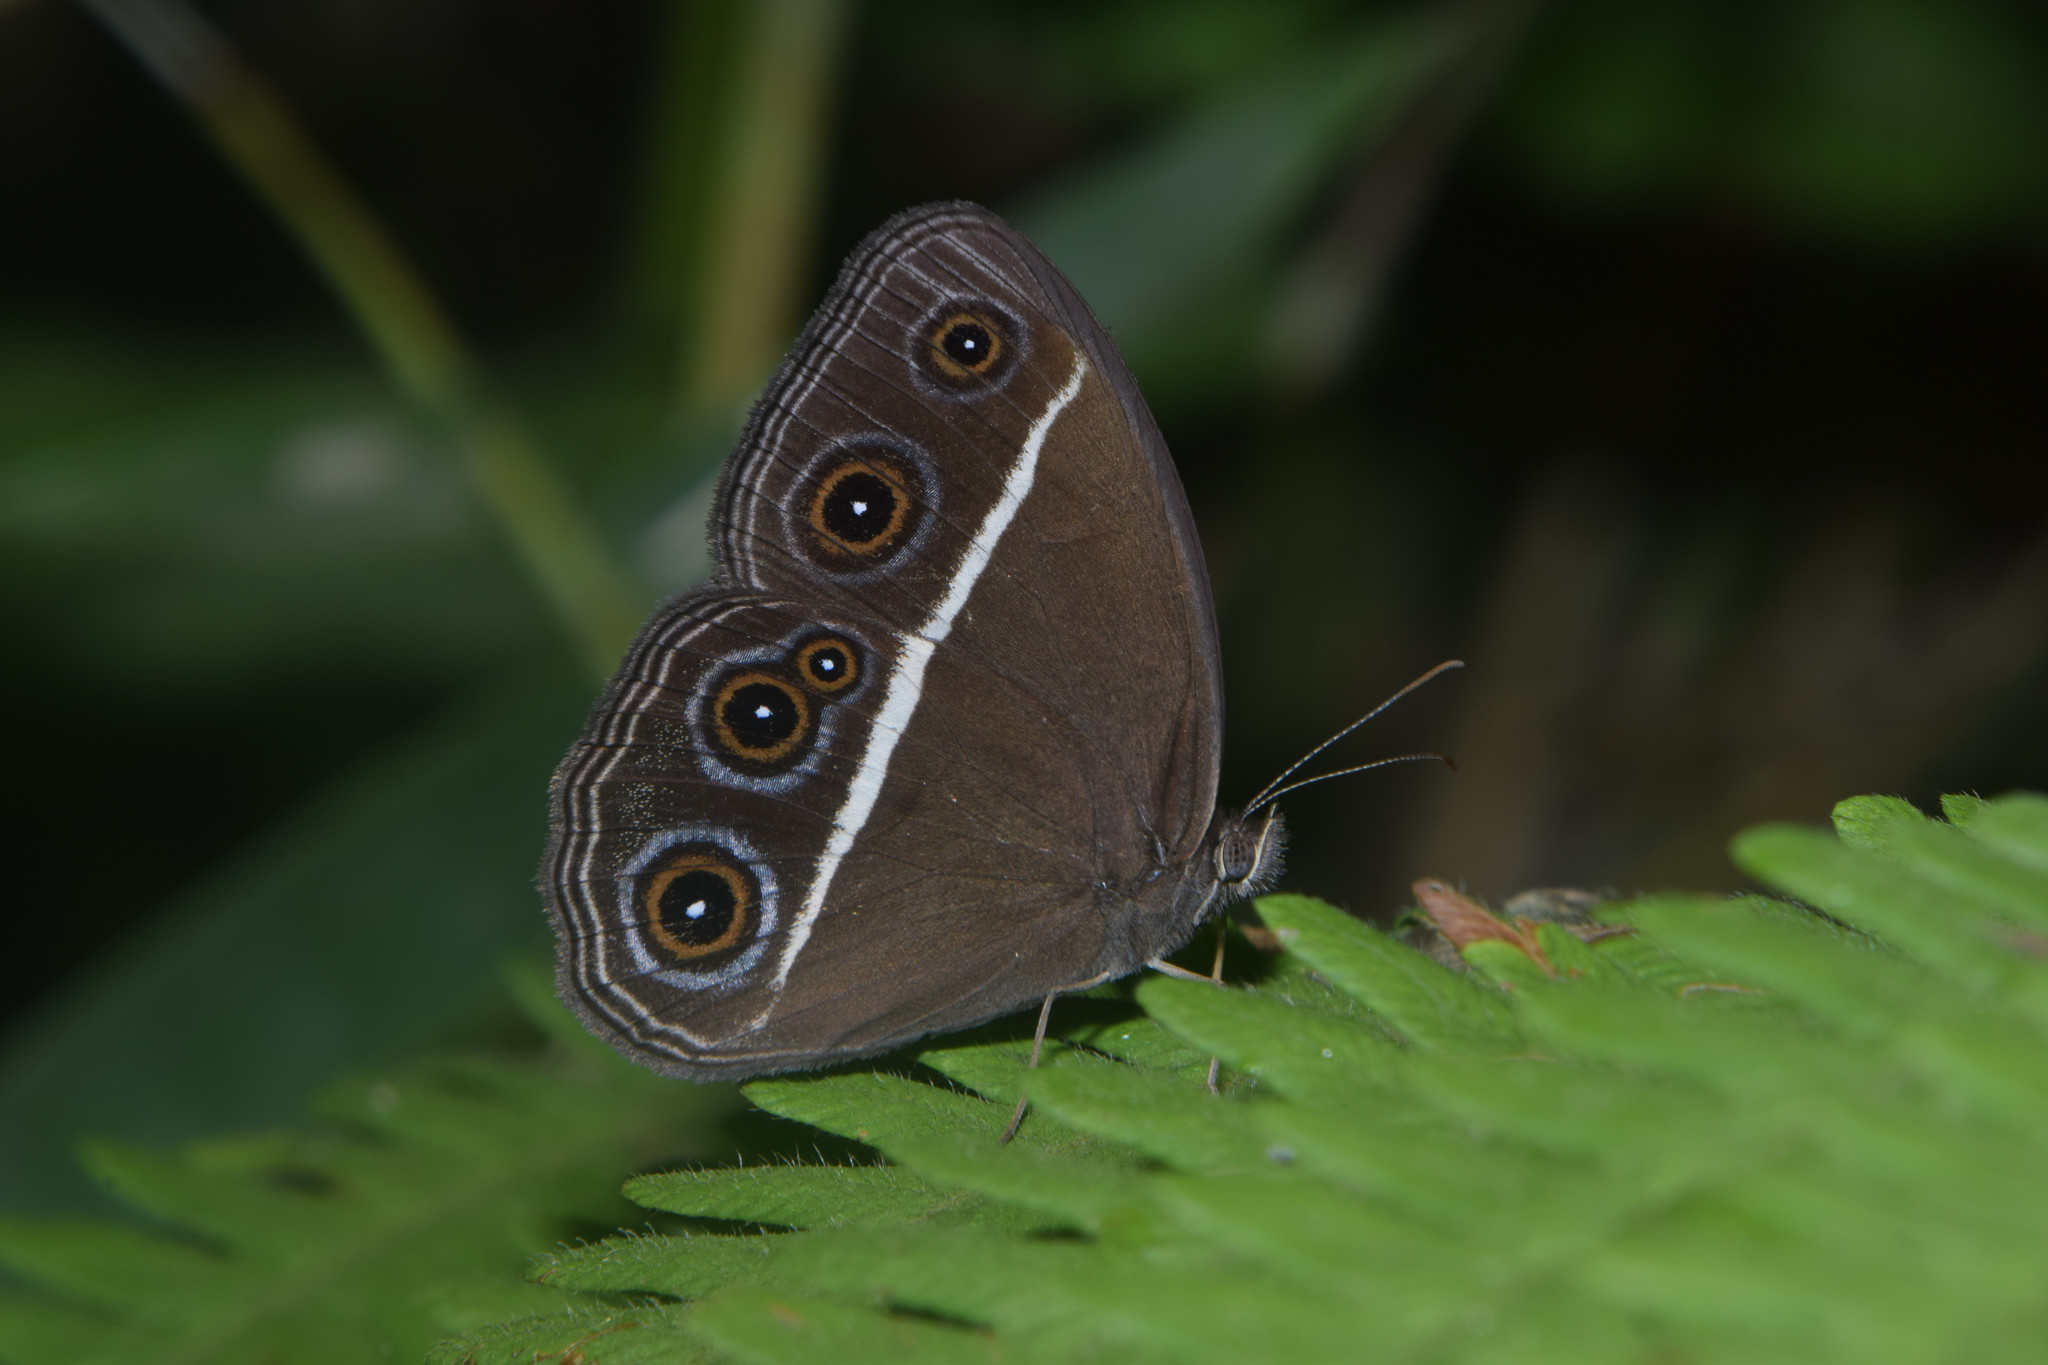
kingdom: Animalia
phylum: Arthropoda
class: Insecta
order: Lepidoptera
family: Nymphalidae
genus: Orsotriaena
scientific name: Orsotriaena medus
